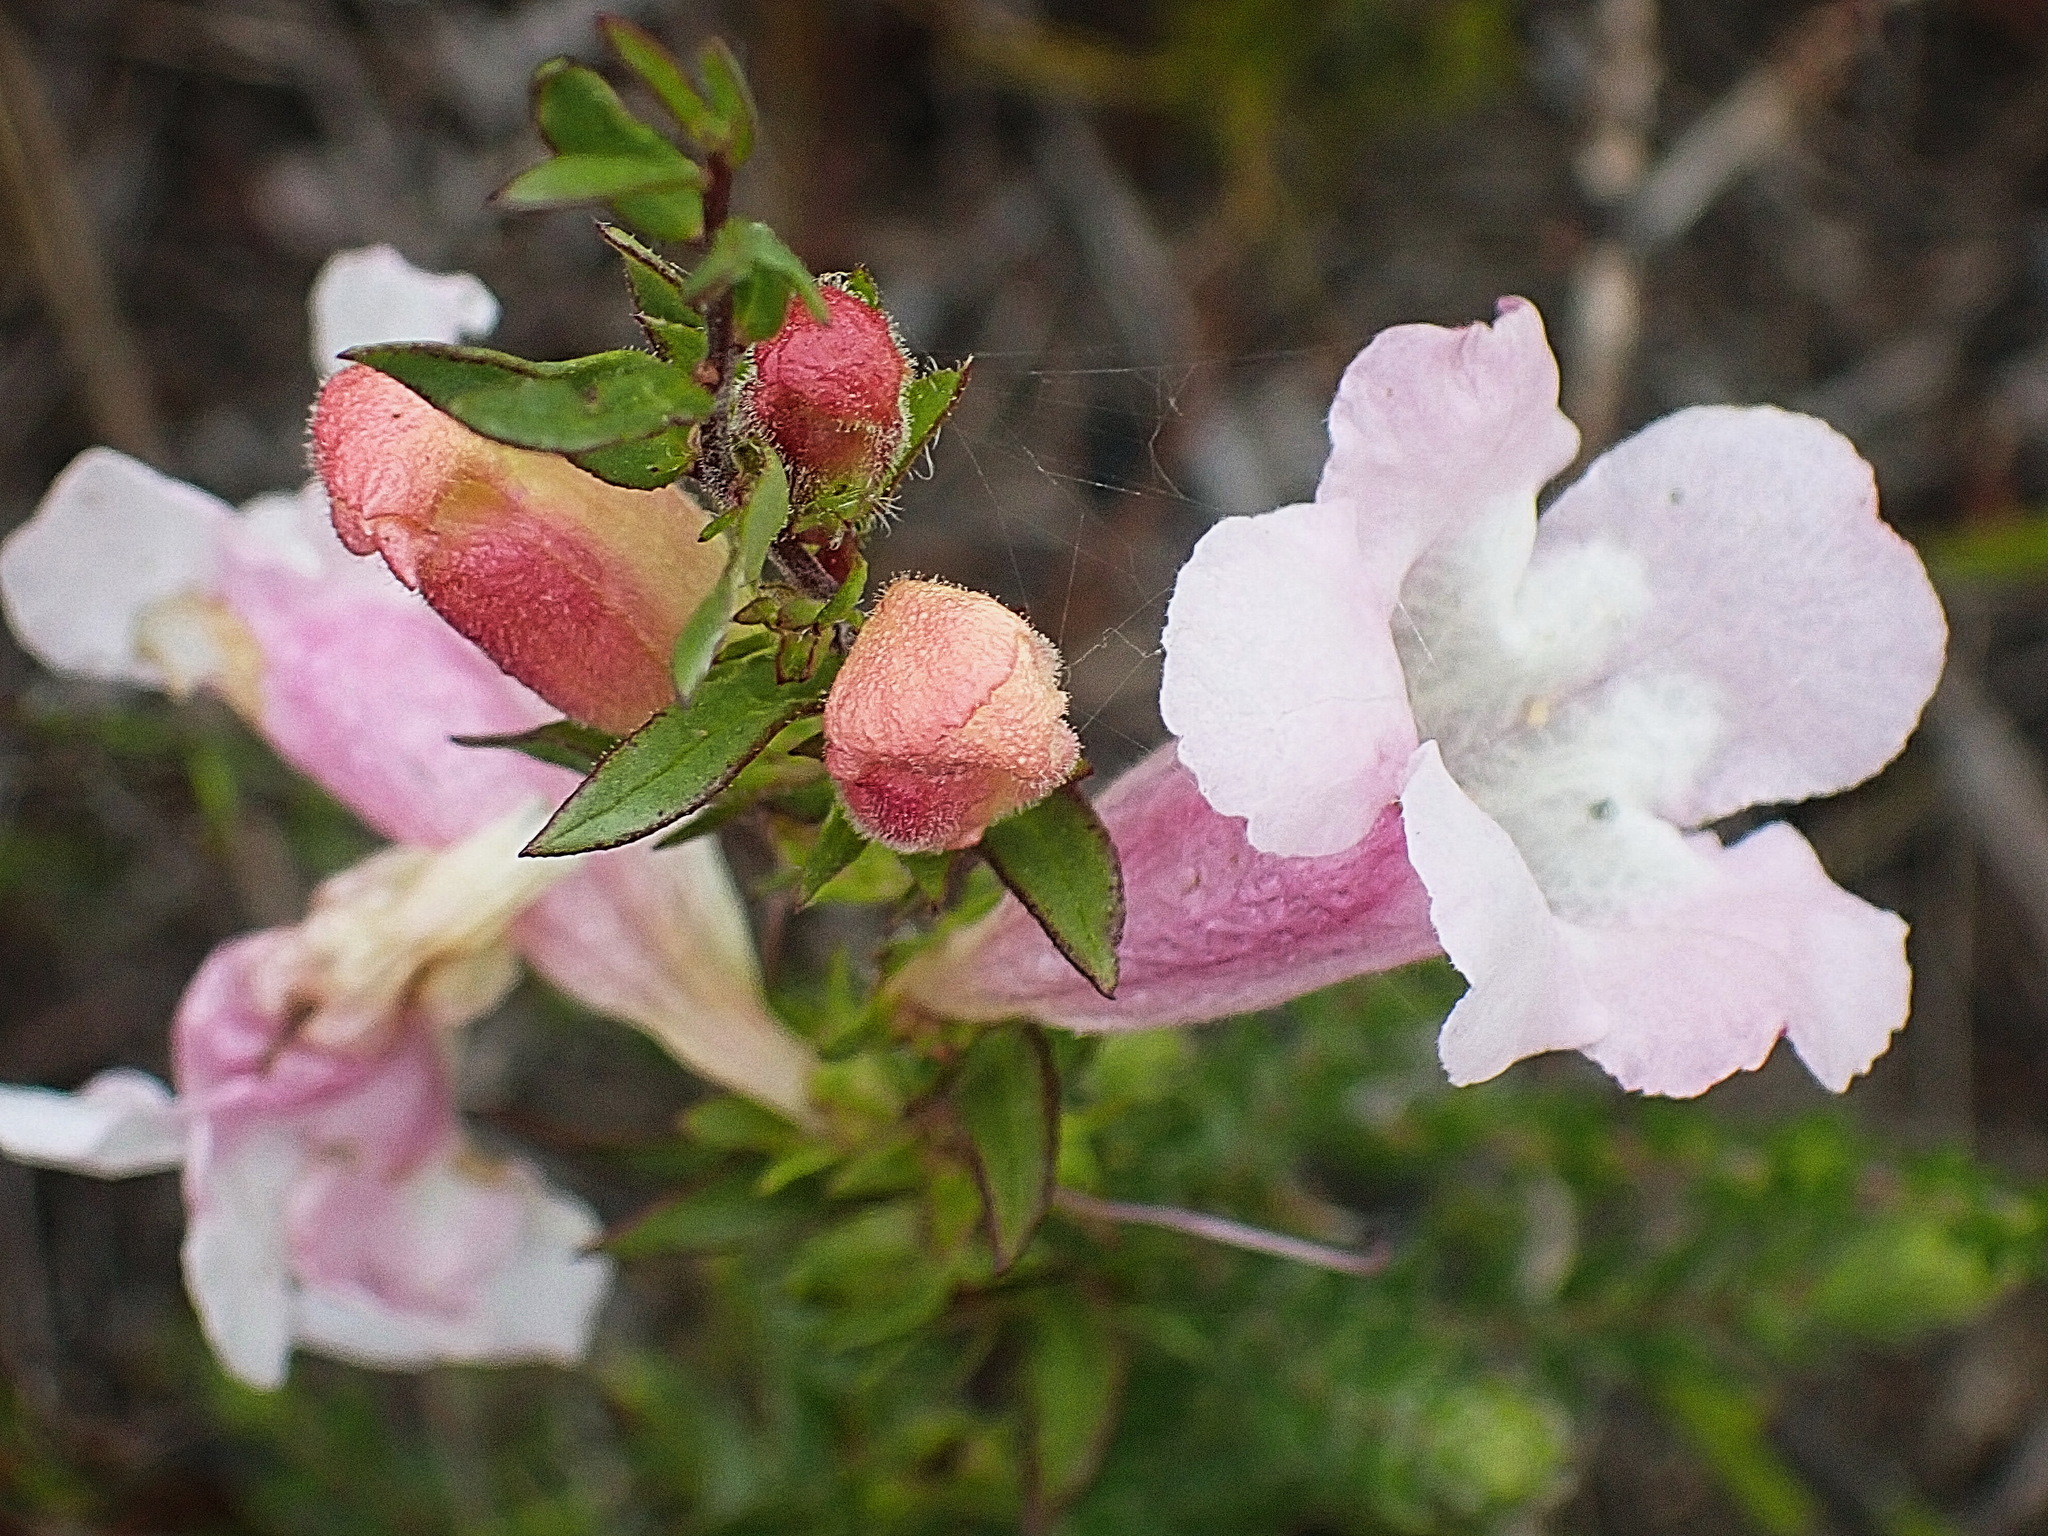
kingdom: Plantae
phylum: Tracheophyta
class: Magnoliopsida
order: Lamiales
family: Orobanchaceae
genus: Graderia
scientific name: Graderia scabra
